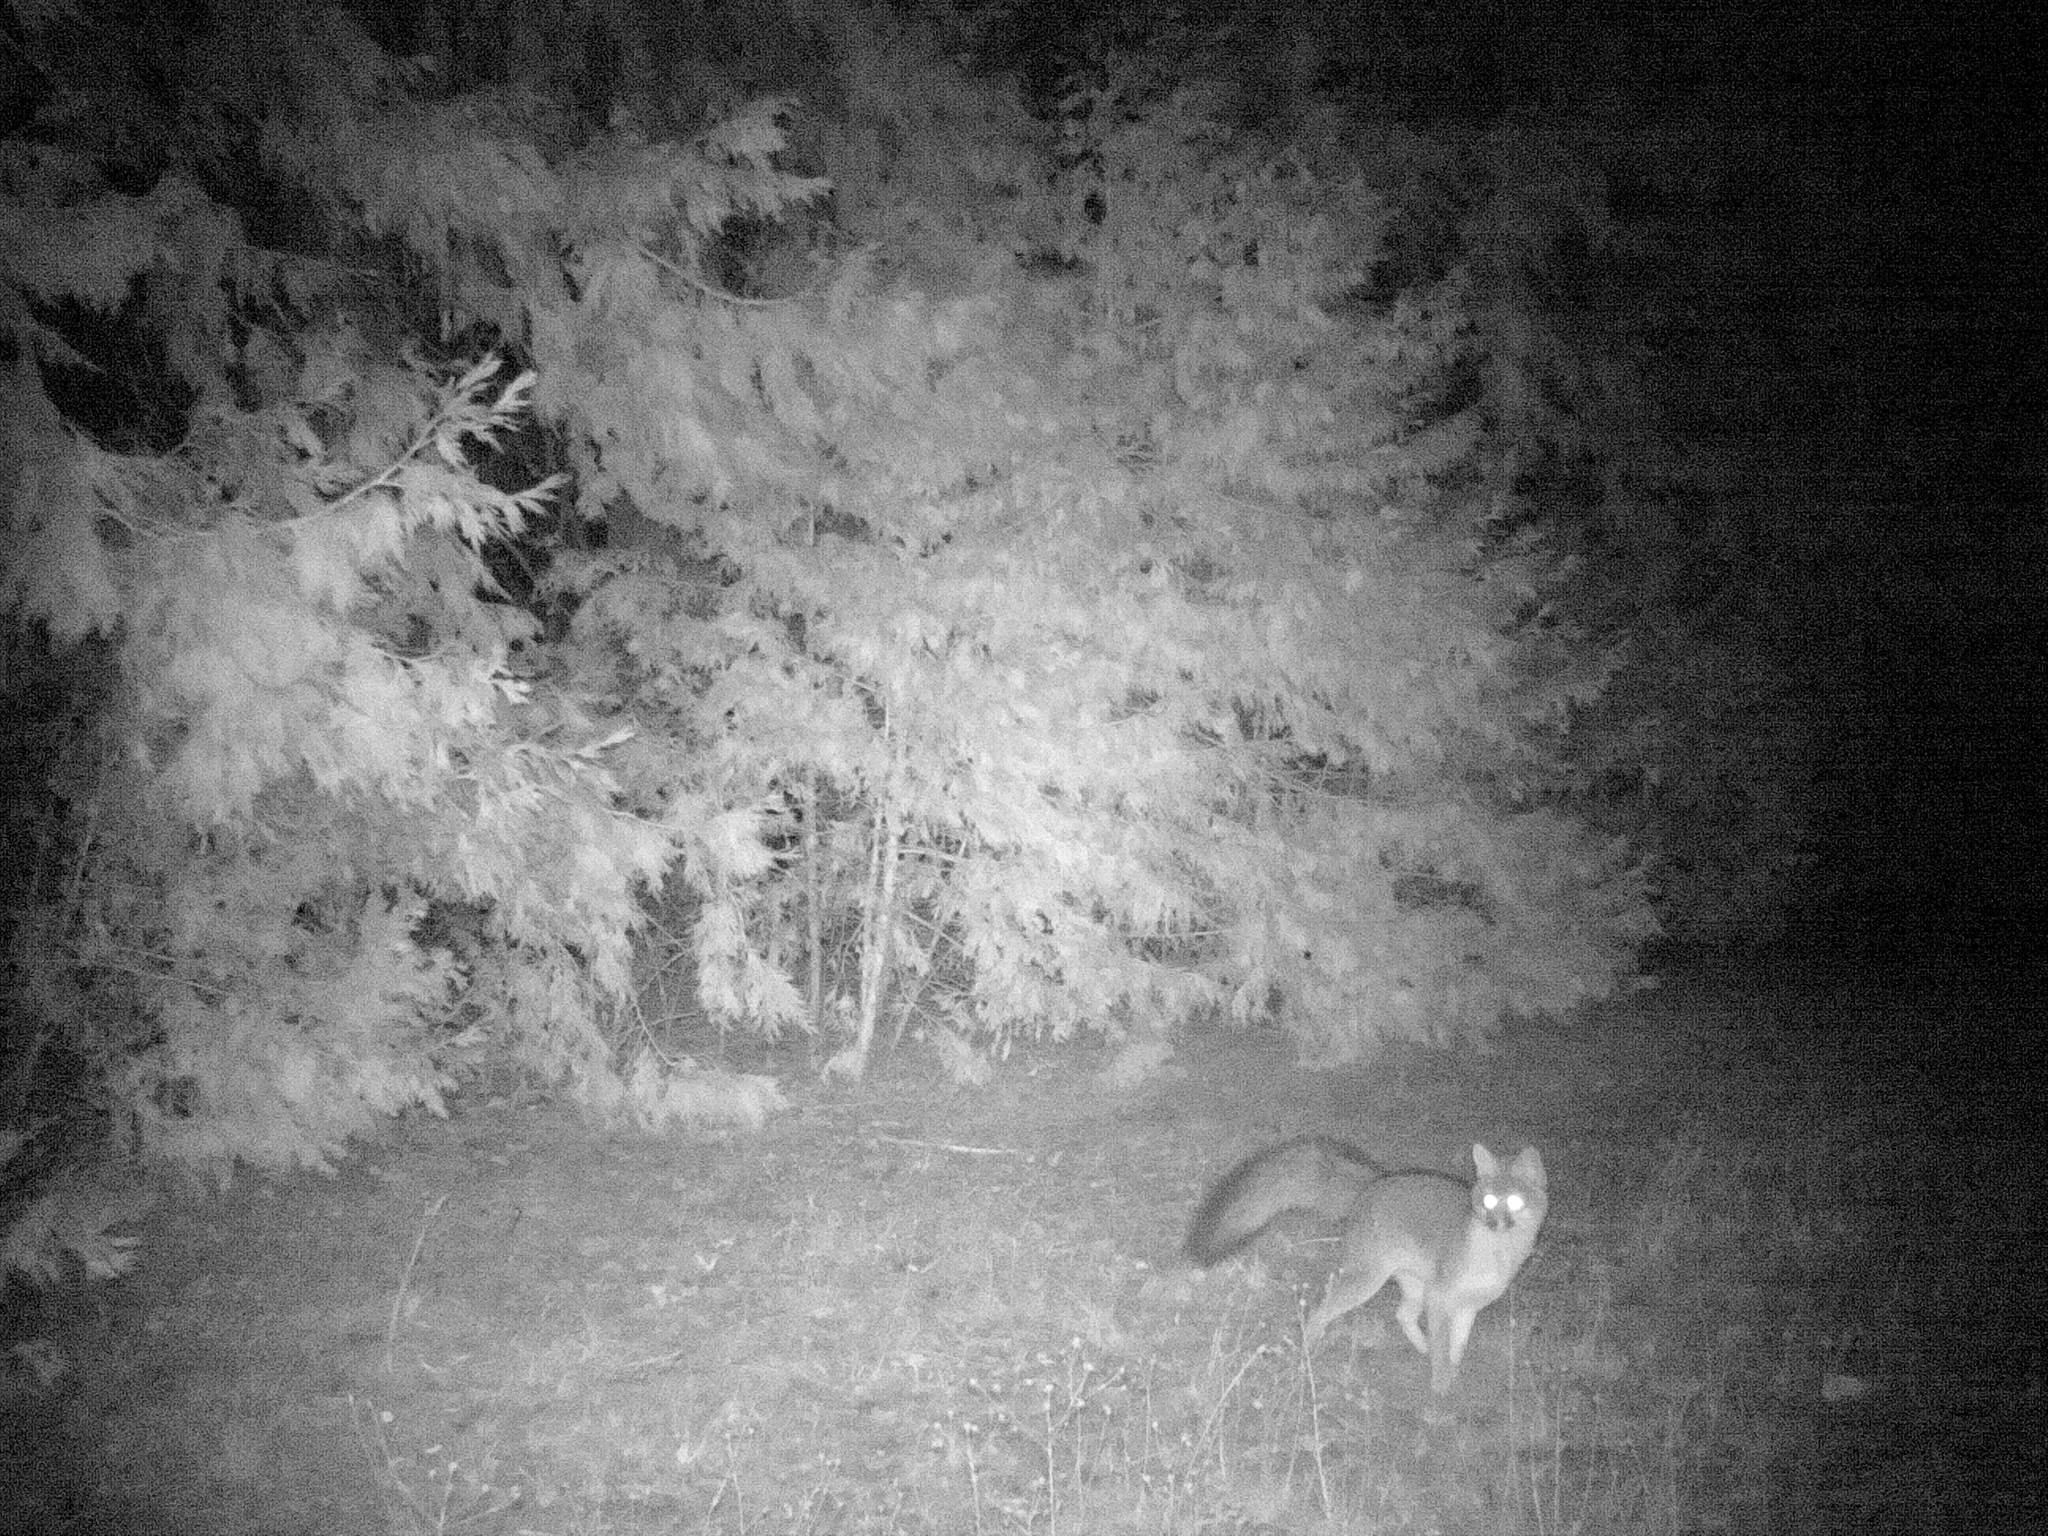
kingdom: Animalia
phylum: Chordata
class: Mammalia
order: Carnivora
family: Canidae
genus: Urocyon
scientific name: Urocyon cinereoargenteus
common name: Gray fox
